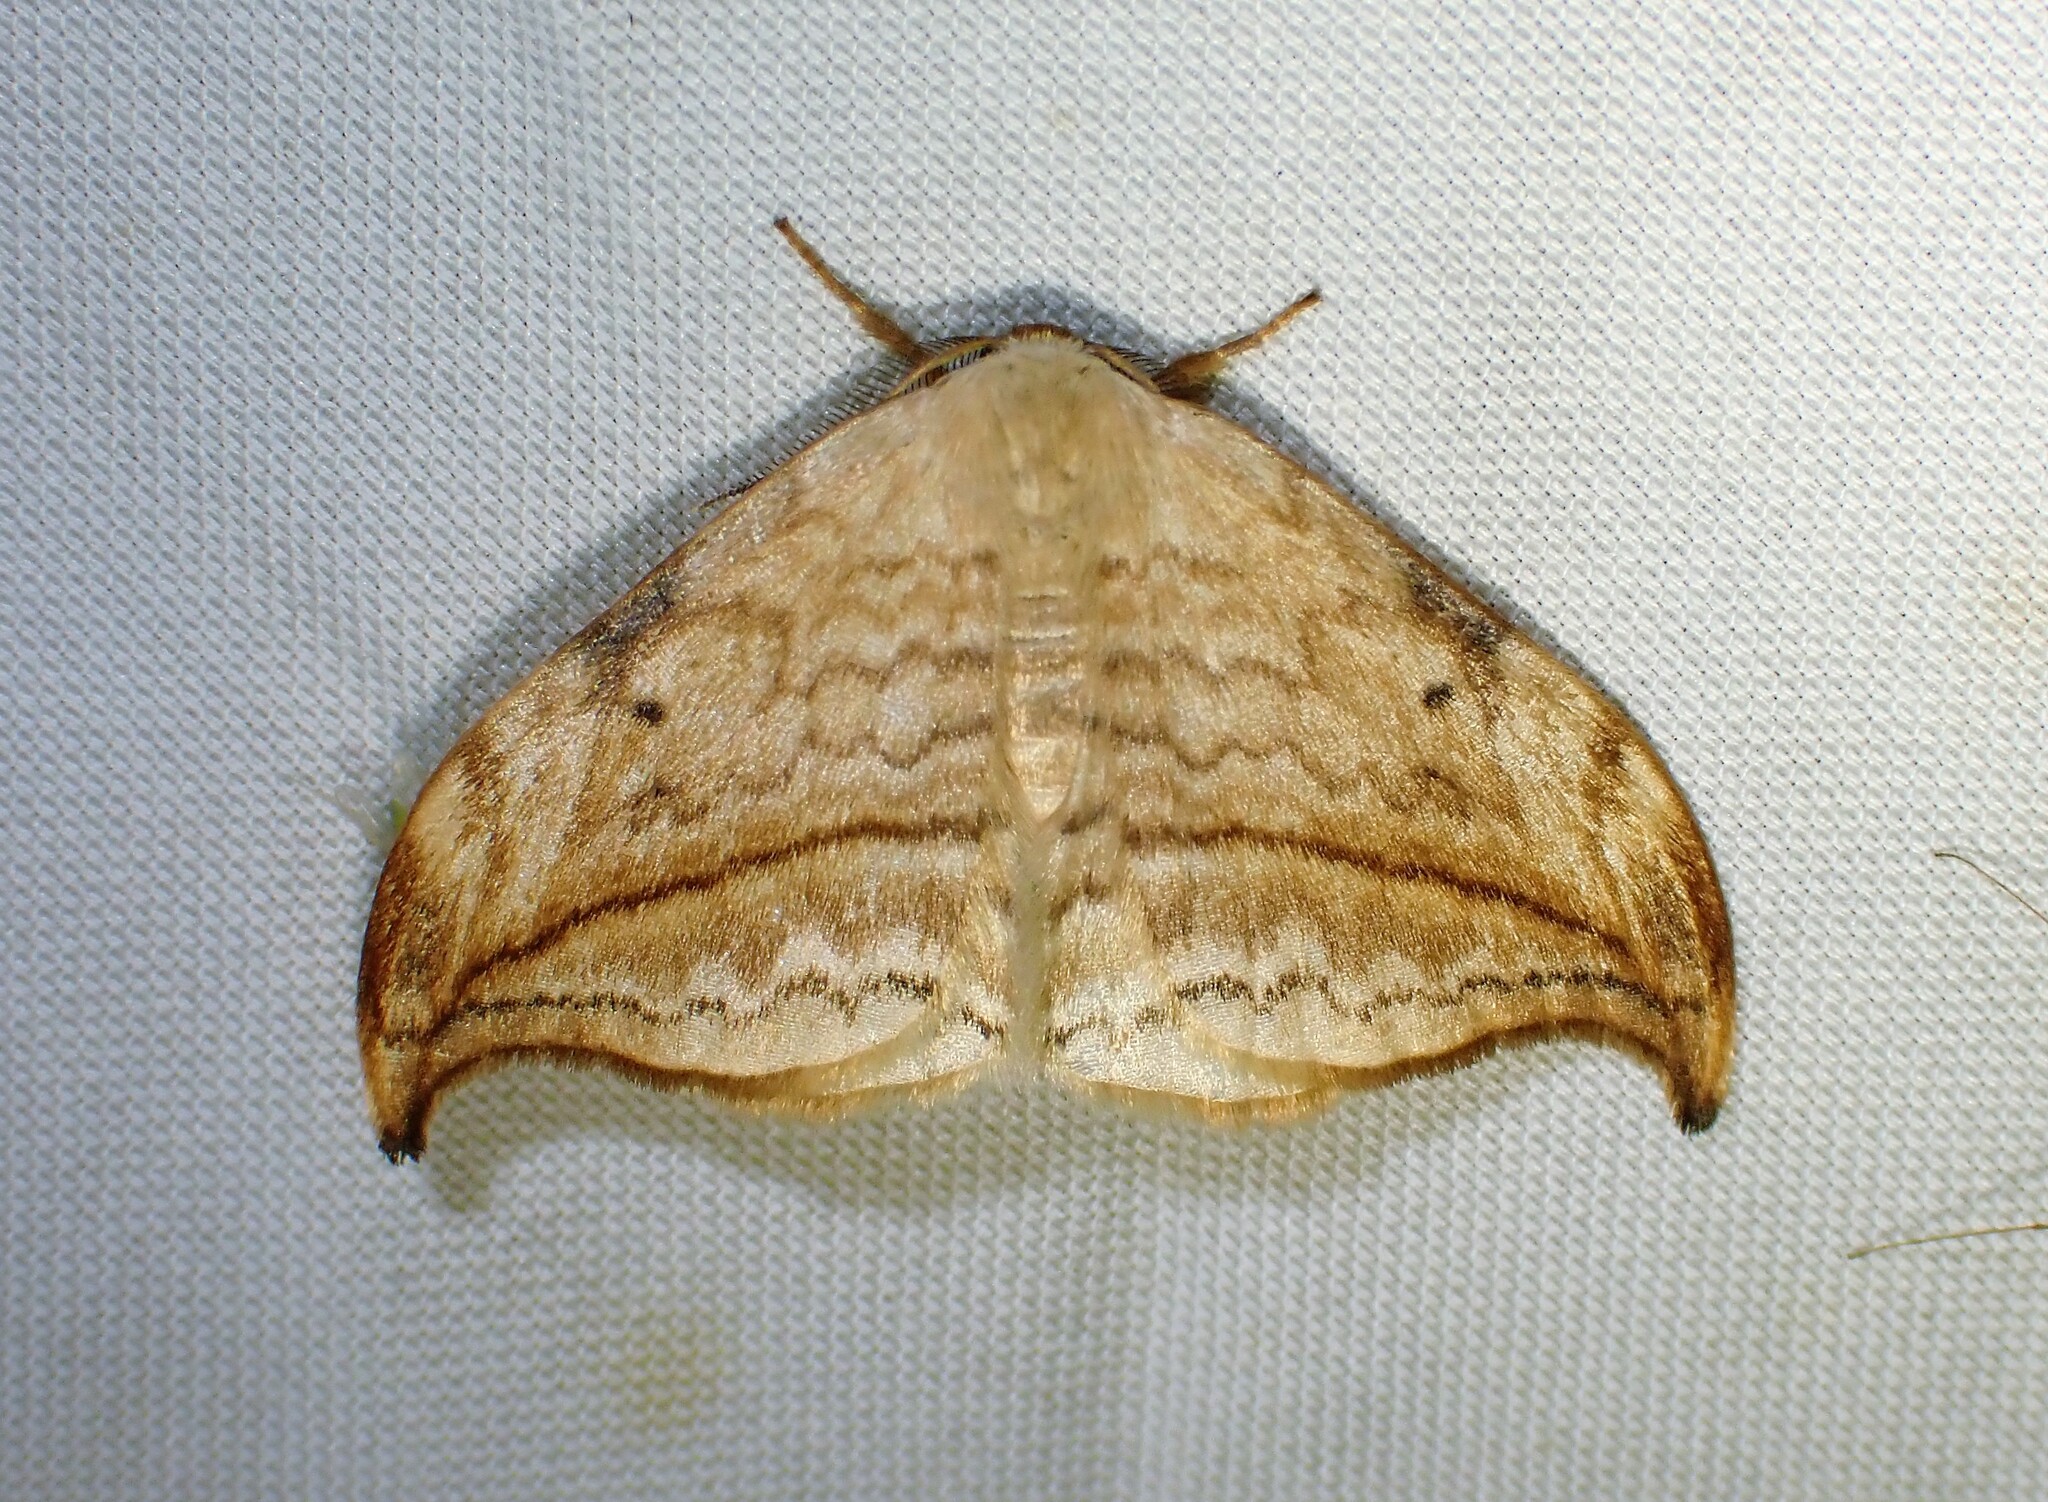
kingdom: Animalia
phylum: Arthropoda
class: Insecta
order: Lepidoptera
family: Drepanidae
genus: Drepana
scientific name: Drepana arcuata
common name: Arched hooktip moth
